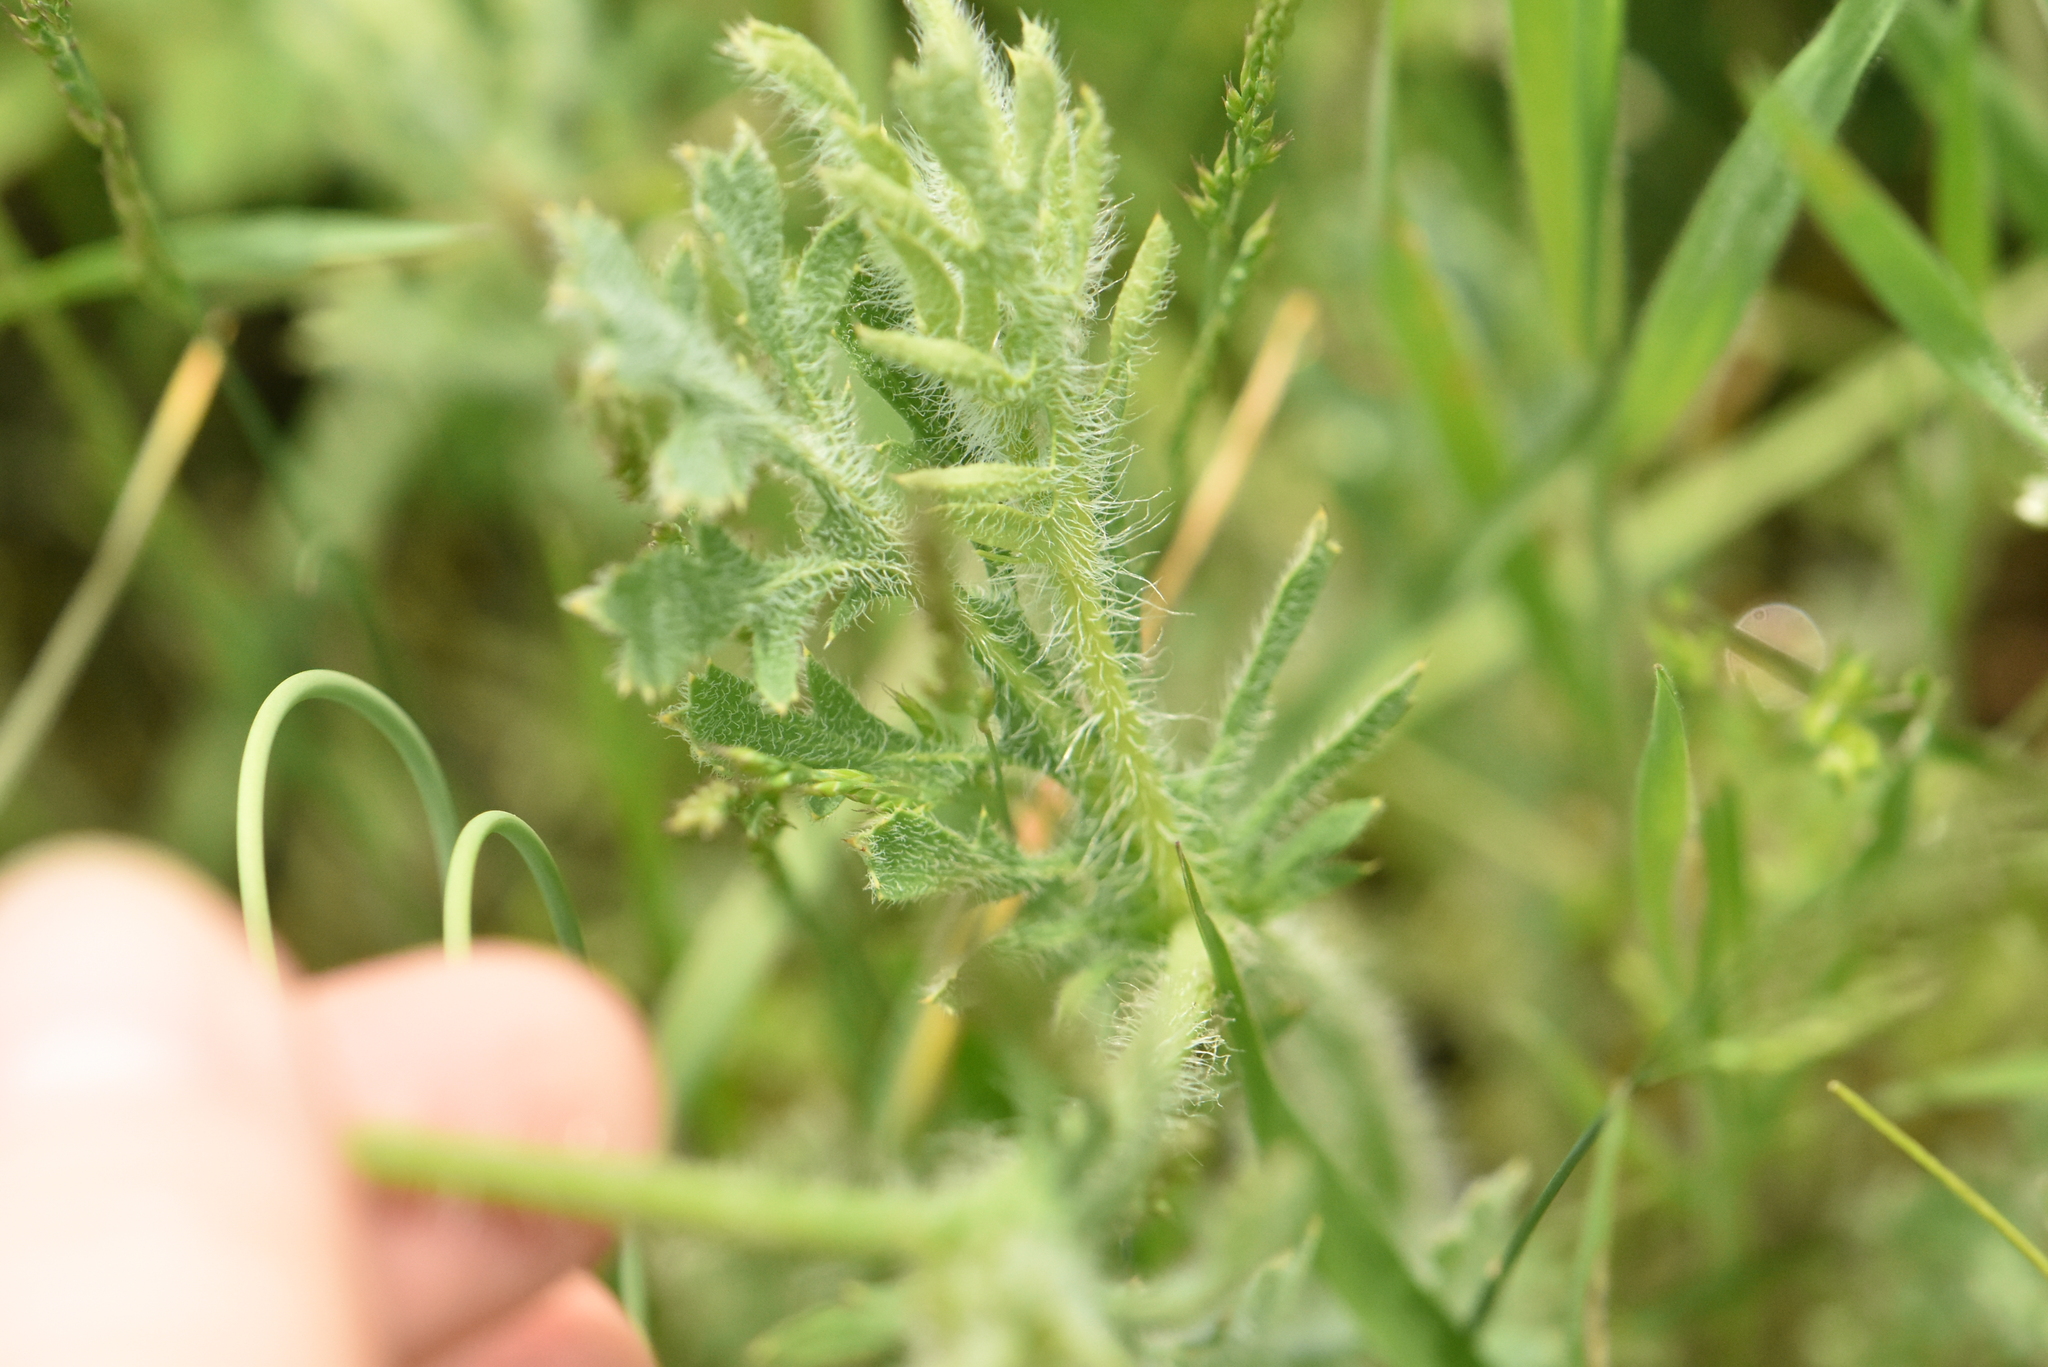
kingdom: Plantae
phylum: Tracheophyta
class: Magnoliopsida
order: Ranunculales
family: Papaveraceae
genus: Glaucium
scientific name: Glaucium corniculatum
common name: Red horned-poppy
